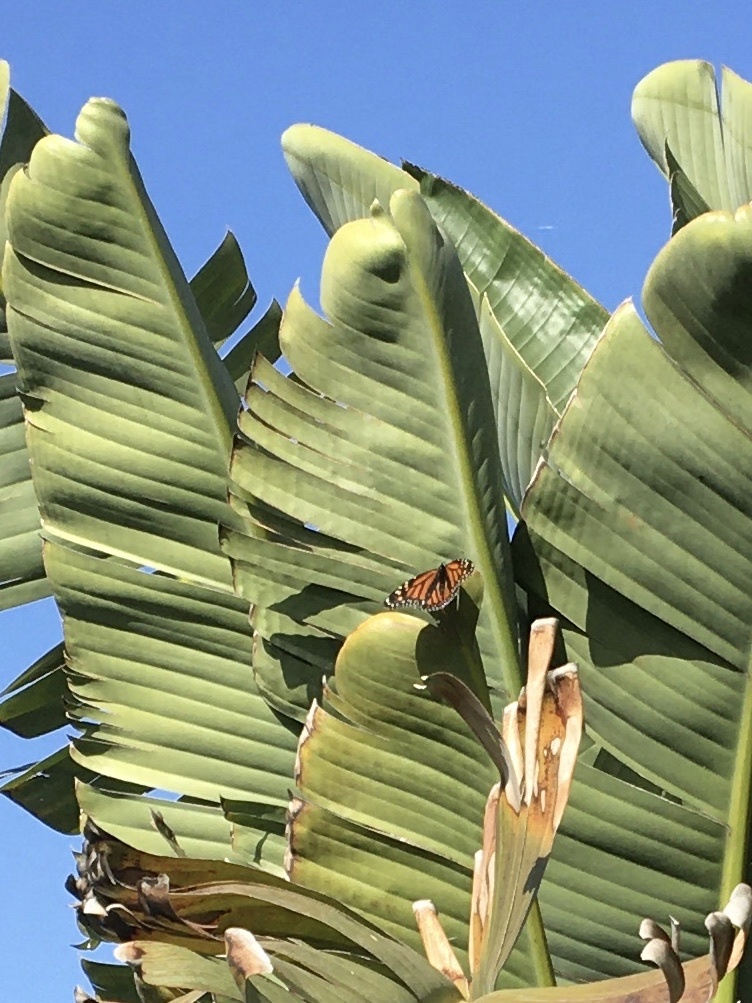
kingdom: Animalia
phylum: Arthropoda
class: Insecta
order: Lepidoptera
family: Nymphalidae
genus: Danaus
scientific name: Danaus plexippus
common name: Monarch
